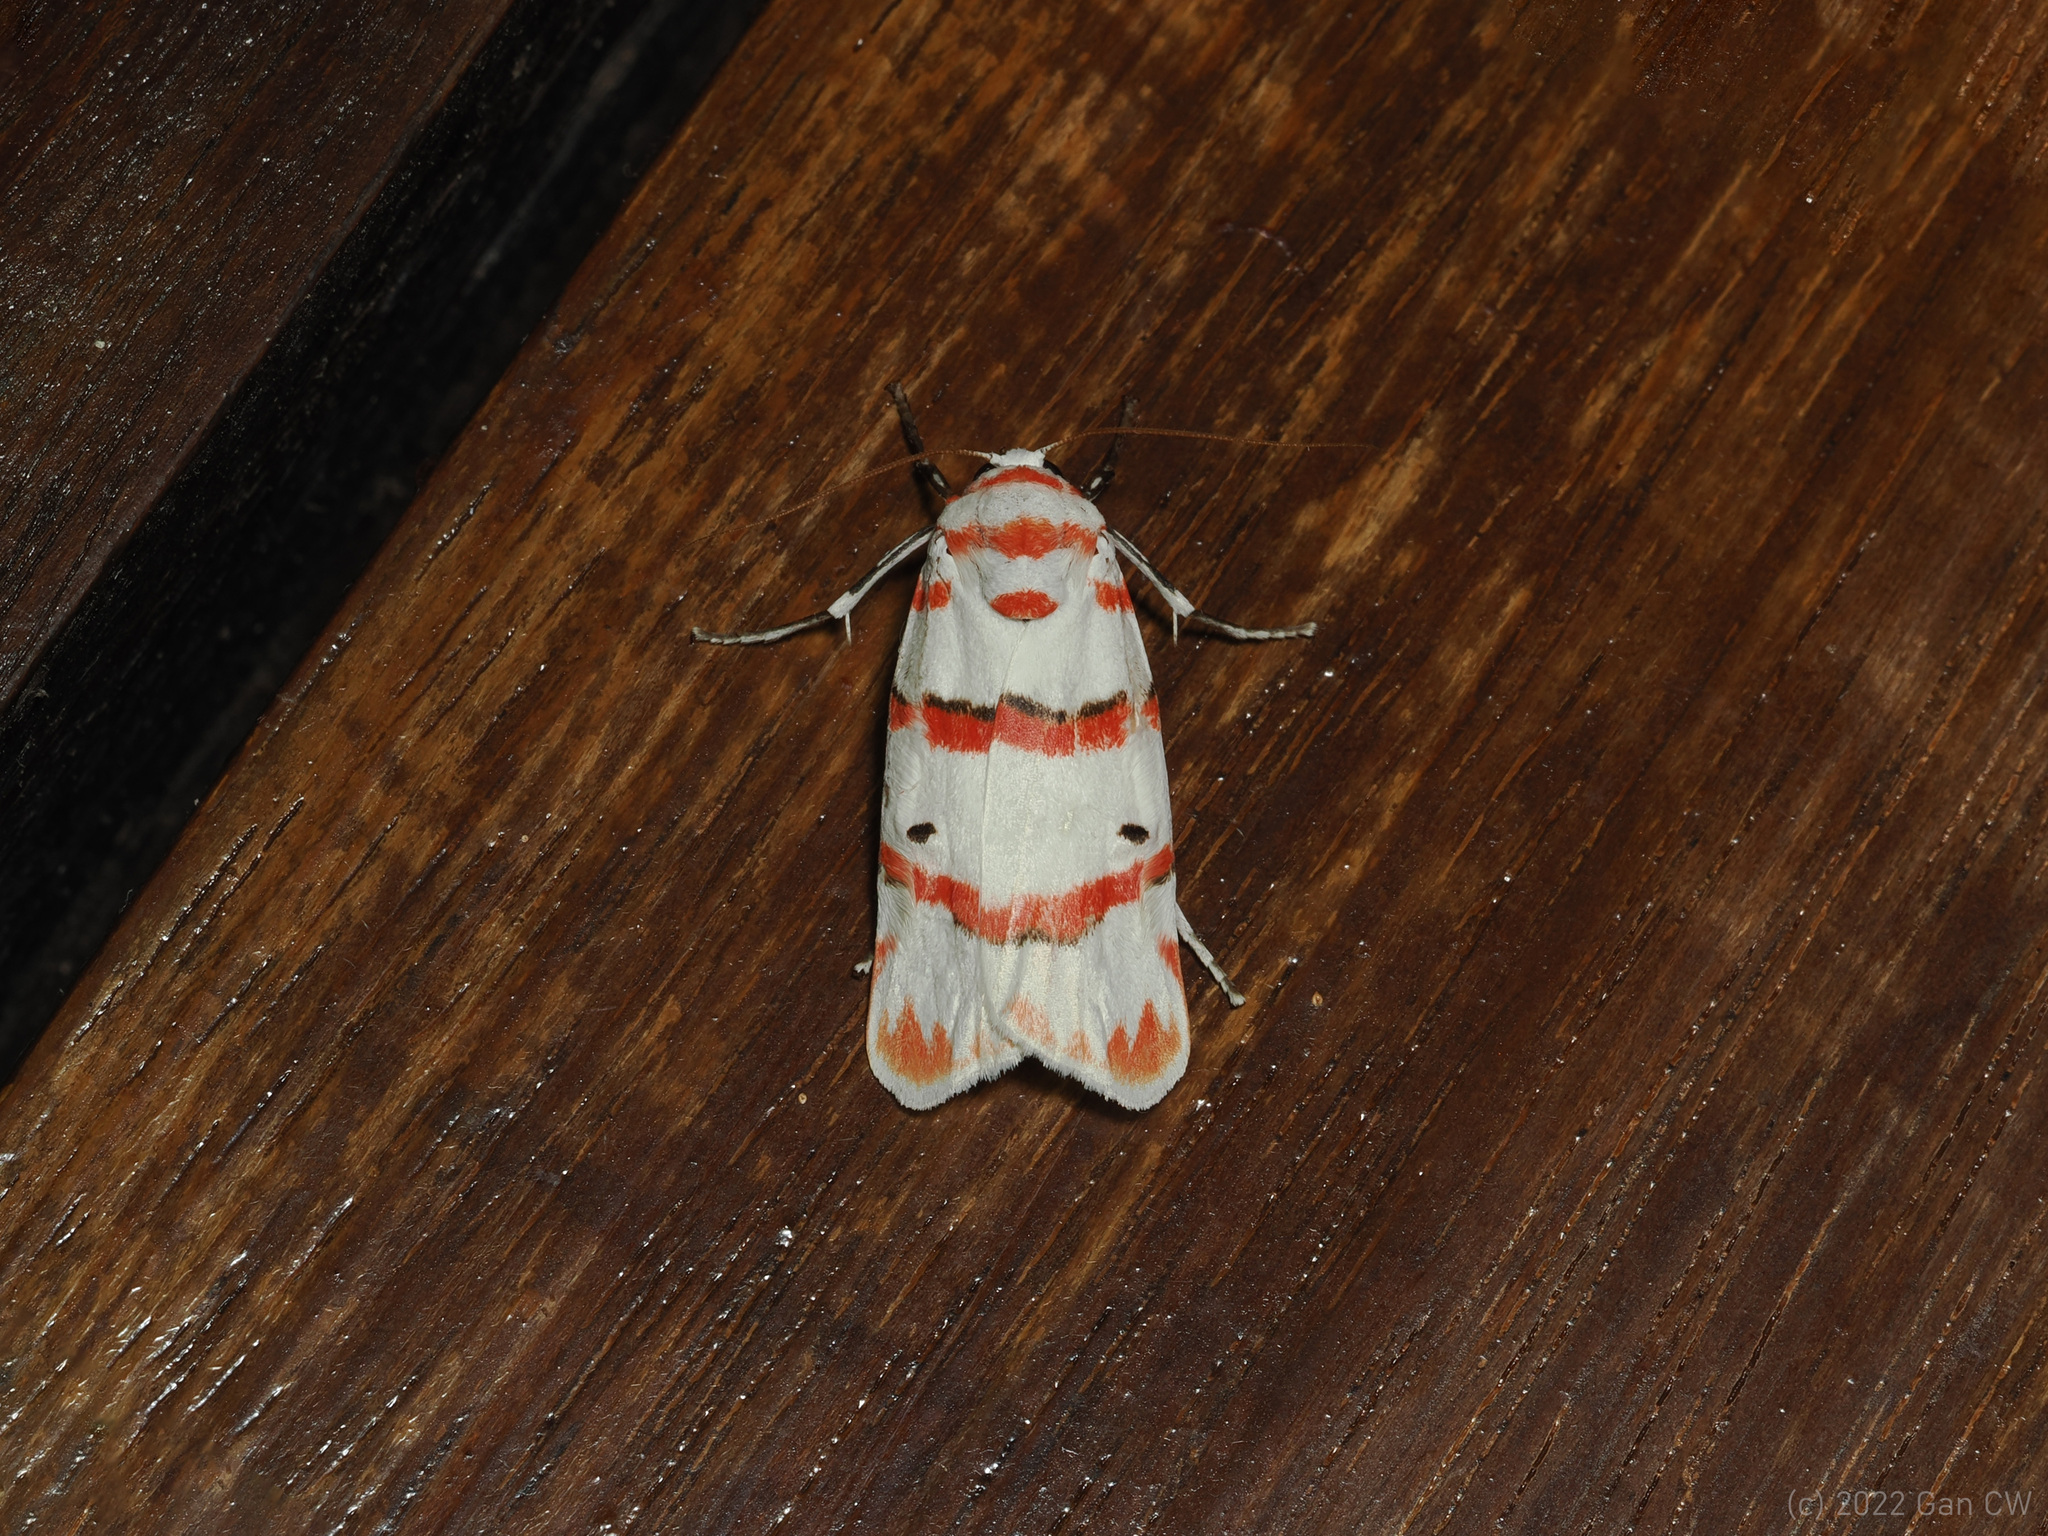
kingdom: Animalia
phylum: Arthropoda
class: Insecta
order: Lepidoptera
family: Erebidae
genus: Cyana
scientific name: Cyana perornata
